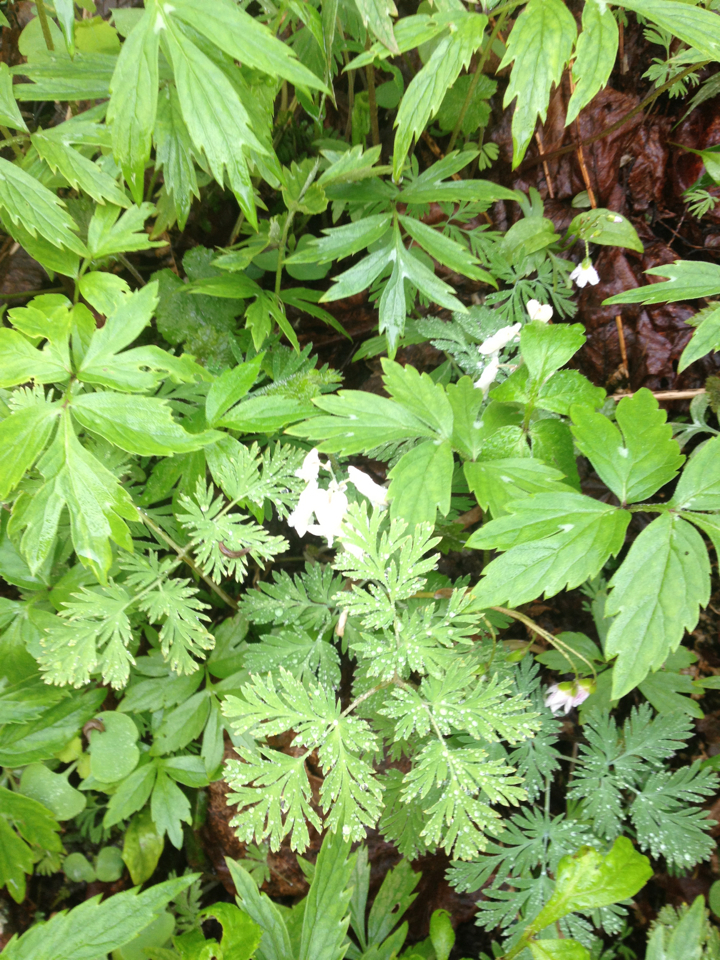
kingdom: Plantae
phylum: Tracheophyta
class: Magnoliopsida
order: Ranunculales
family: Papaveraceae
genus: Dicentra
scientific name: Dicentra canadensis
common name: Squirrel-corn
